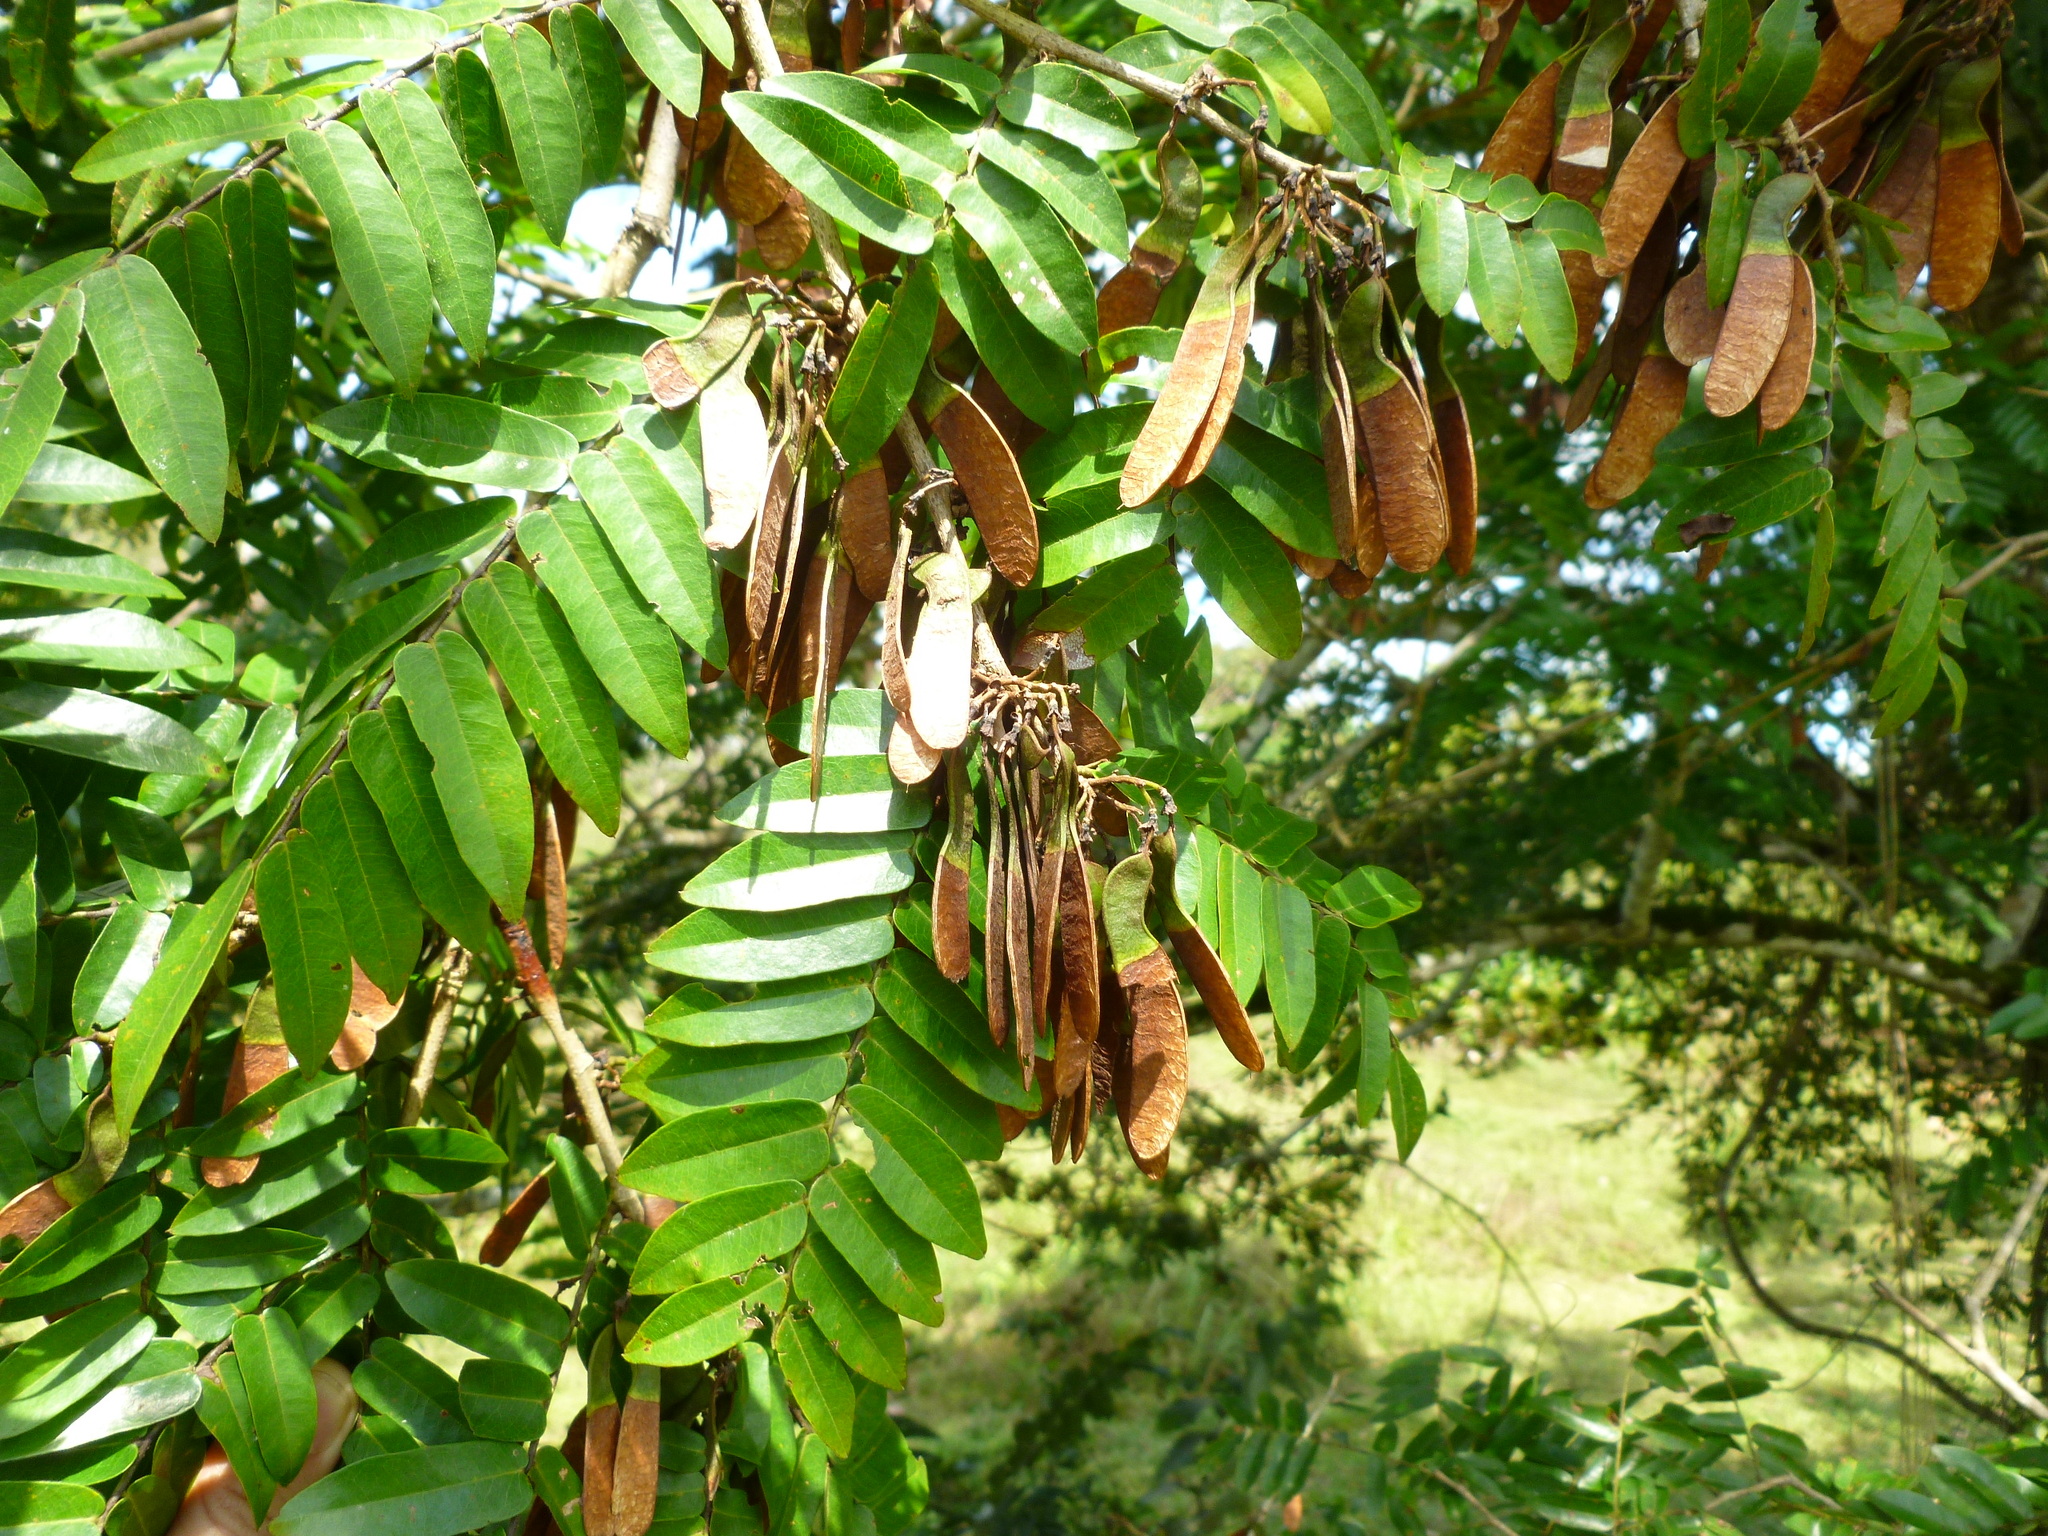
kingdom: Plantae
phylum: Tracheophyta
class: Magnoliopsida
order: Fabales
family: Fabaceae
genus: Machaerium
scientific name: Machaerium capote
